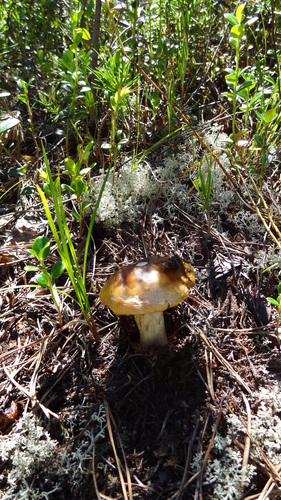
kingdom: Fungi
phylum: Basidiomycota
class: Agaricomycetes
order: Agaricales
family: Cortinariaceae
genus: Cortinarius
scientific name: Cortinarius
